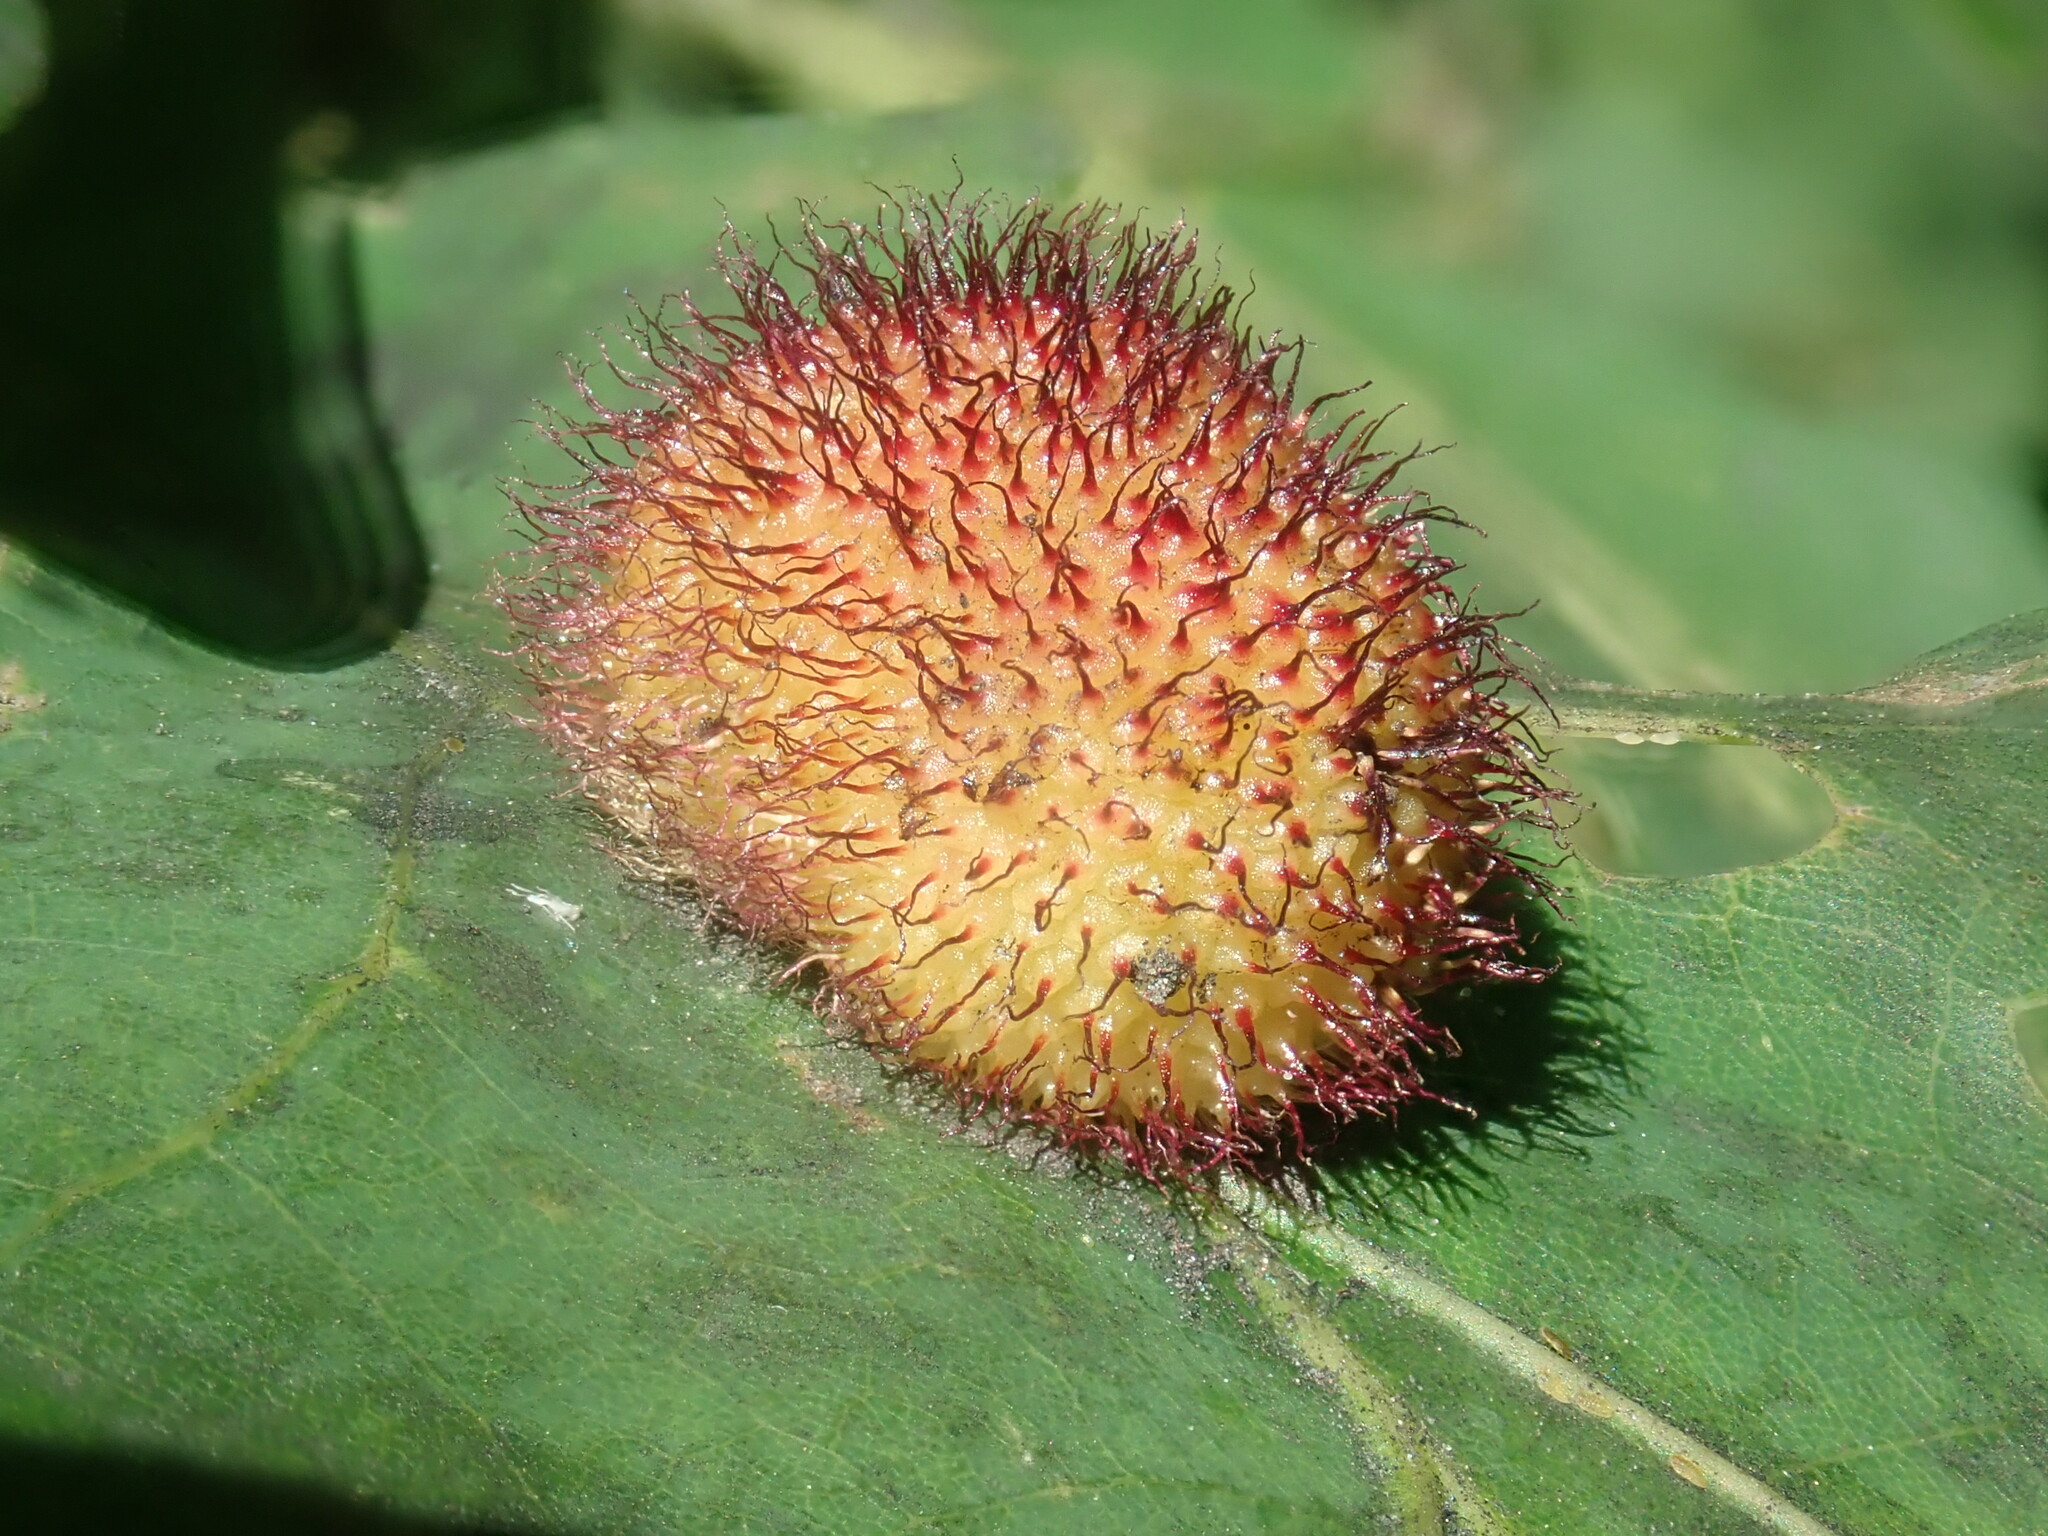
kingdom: Animalia
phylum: Arthropoda
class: Insecta
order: Hymenoptera
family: Cynipidae
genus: Acraspis
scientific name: Acraspis erinacei
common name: Hedgehog gall wasp
